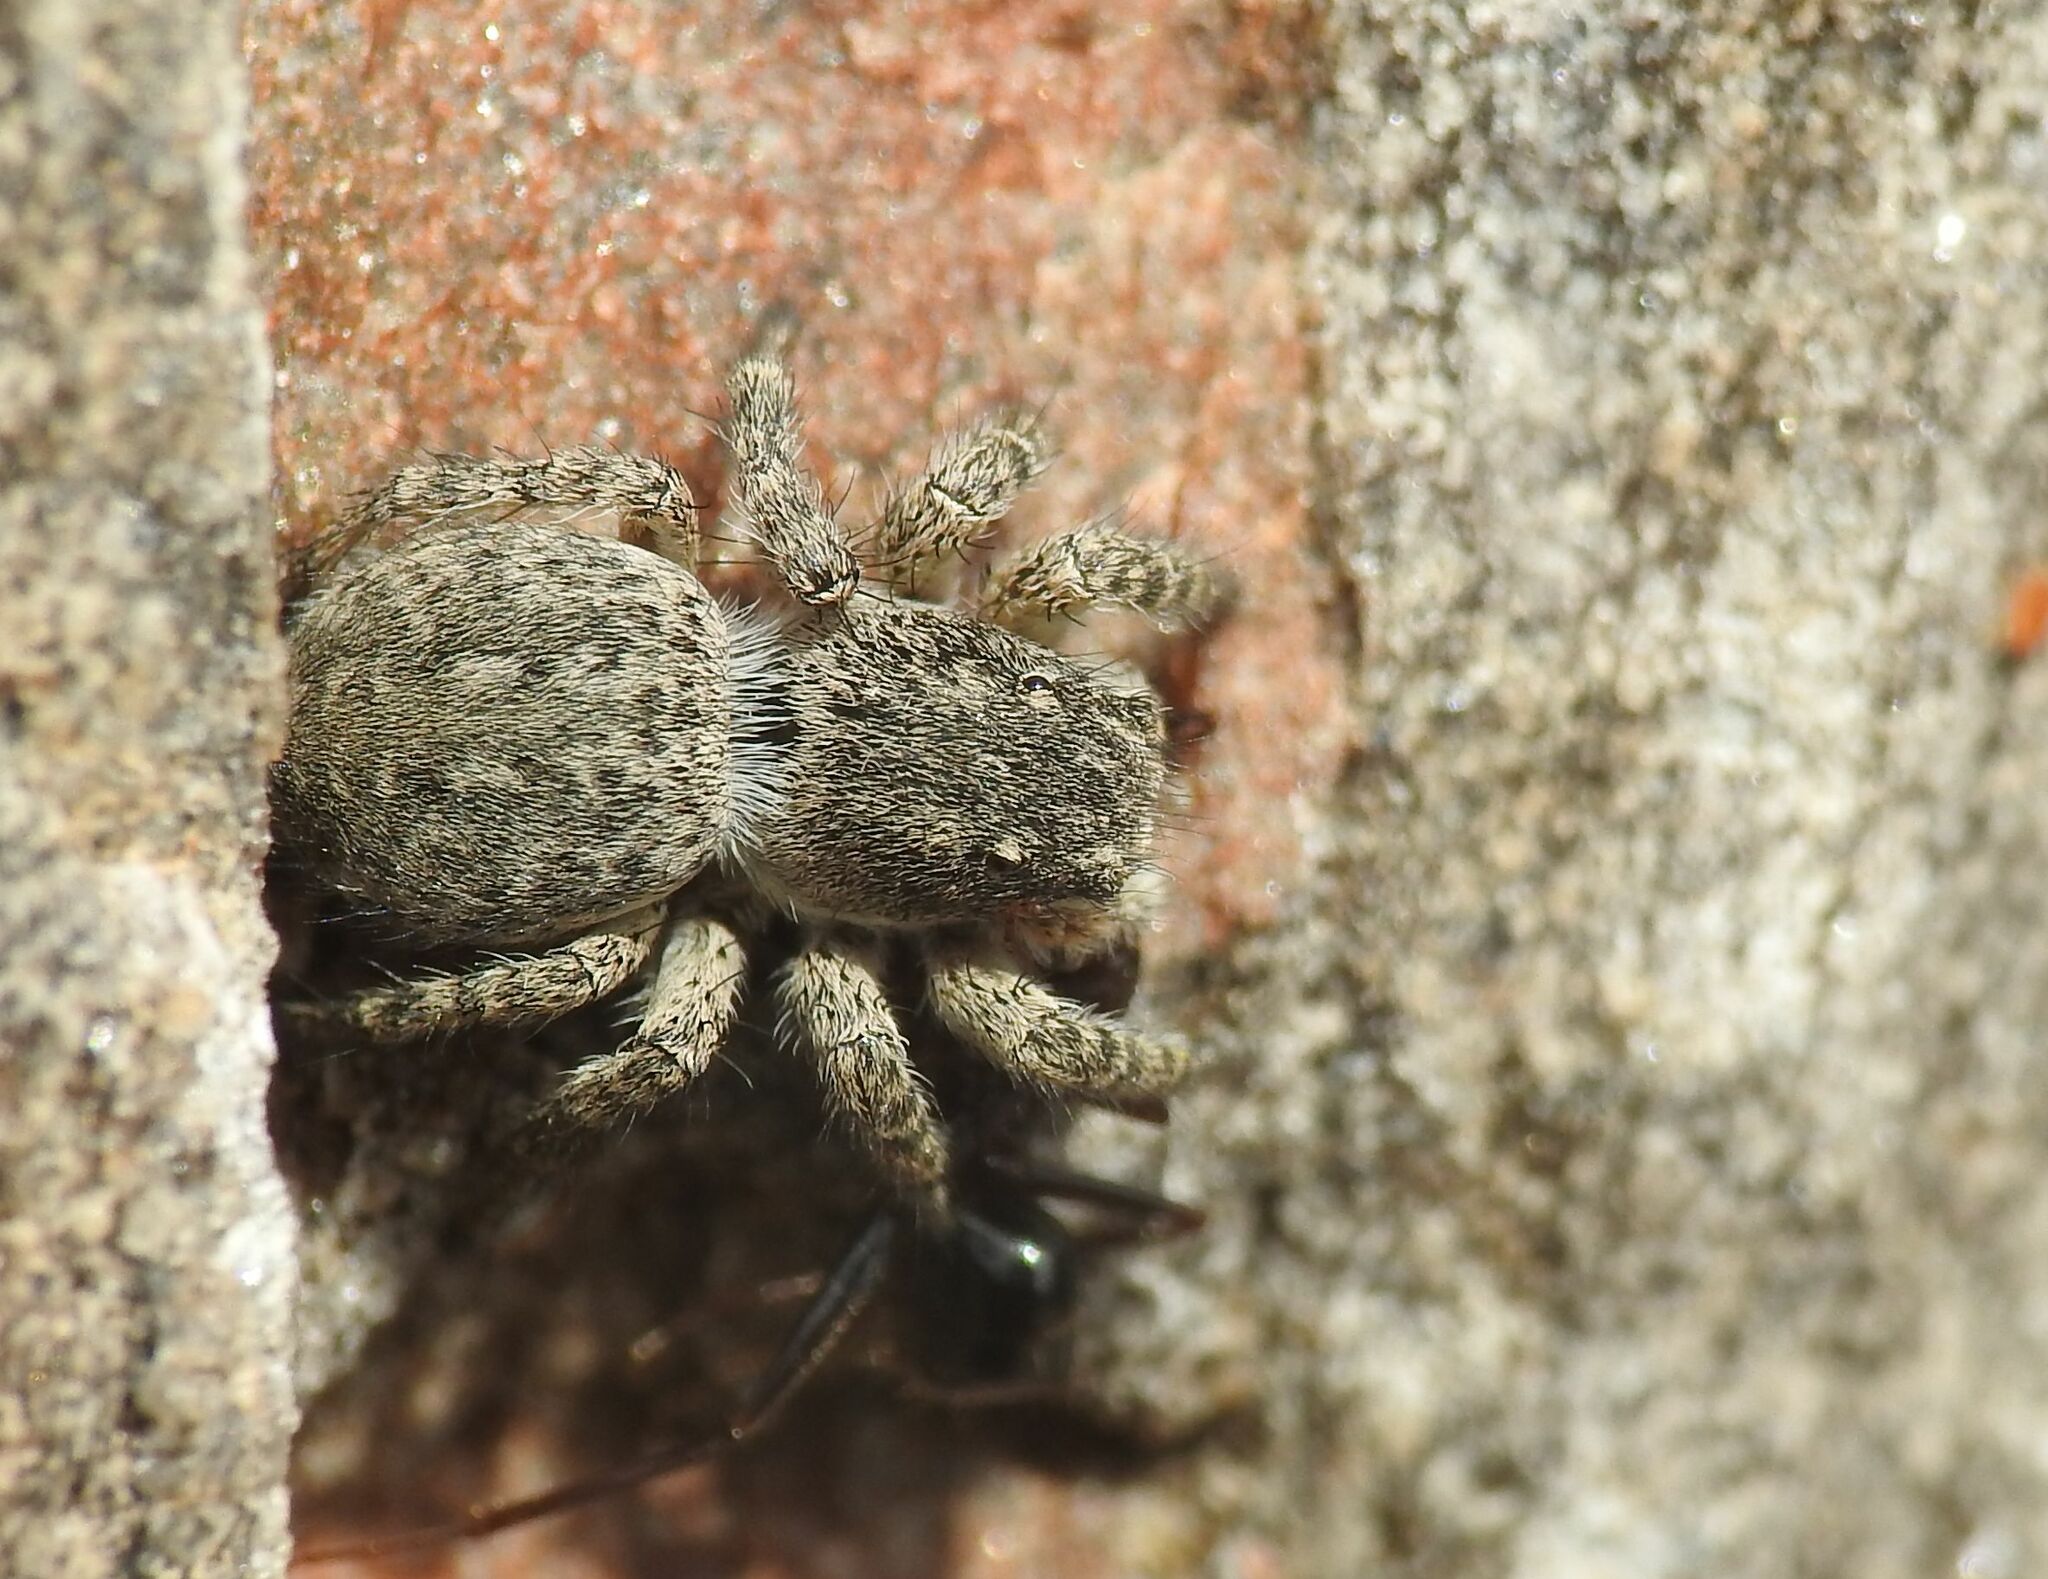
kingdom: Animalia
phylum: Arthropoda
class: Arachnida
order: Araneae
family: Salticidae
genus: Aelurillus
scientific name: Aelurillus v-insignitus
